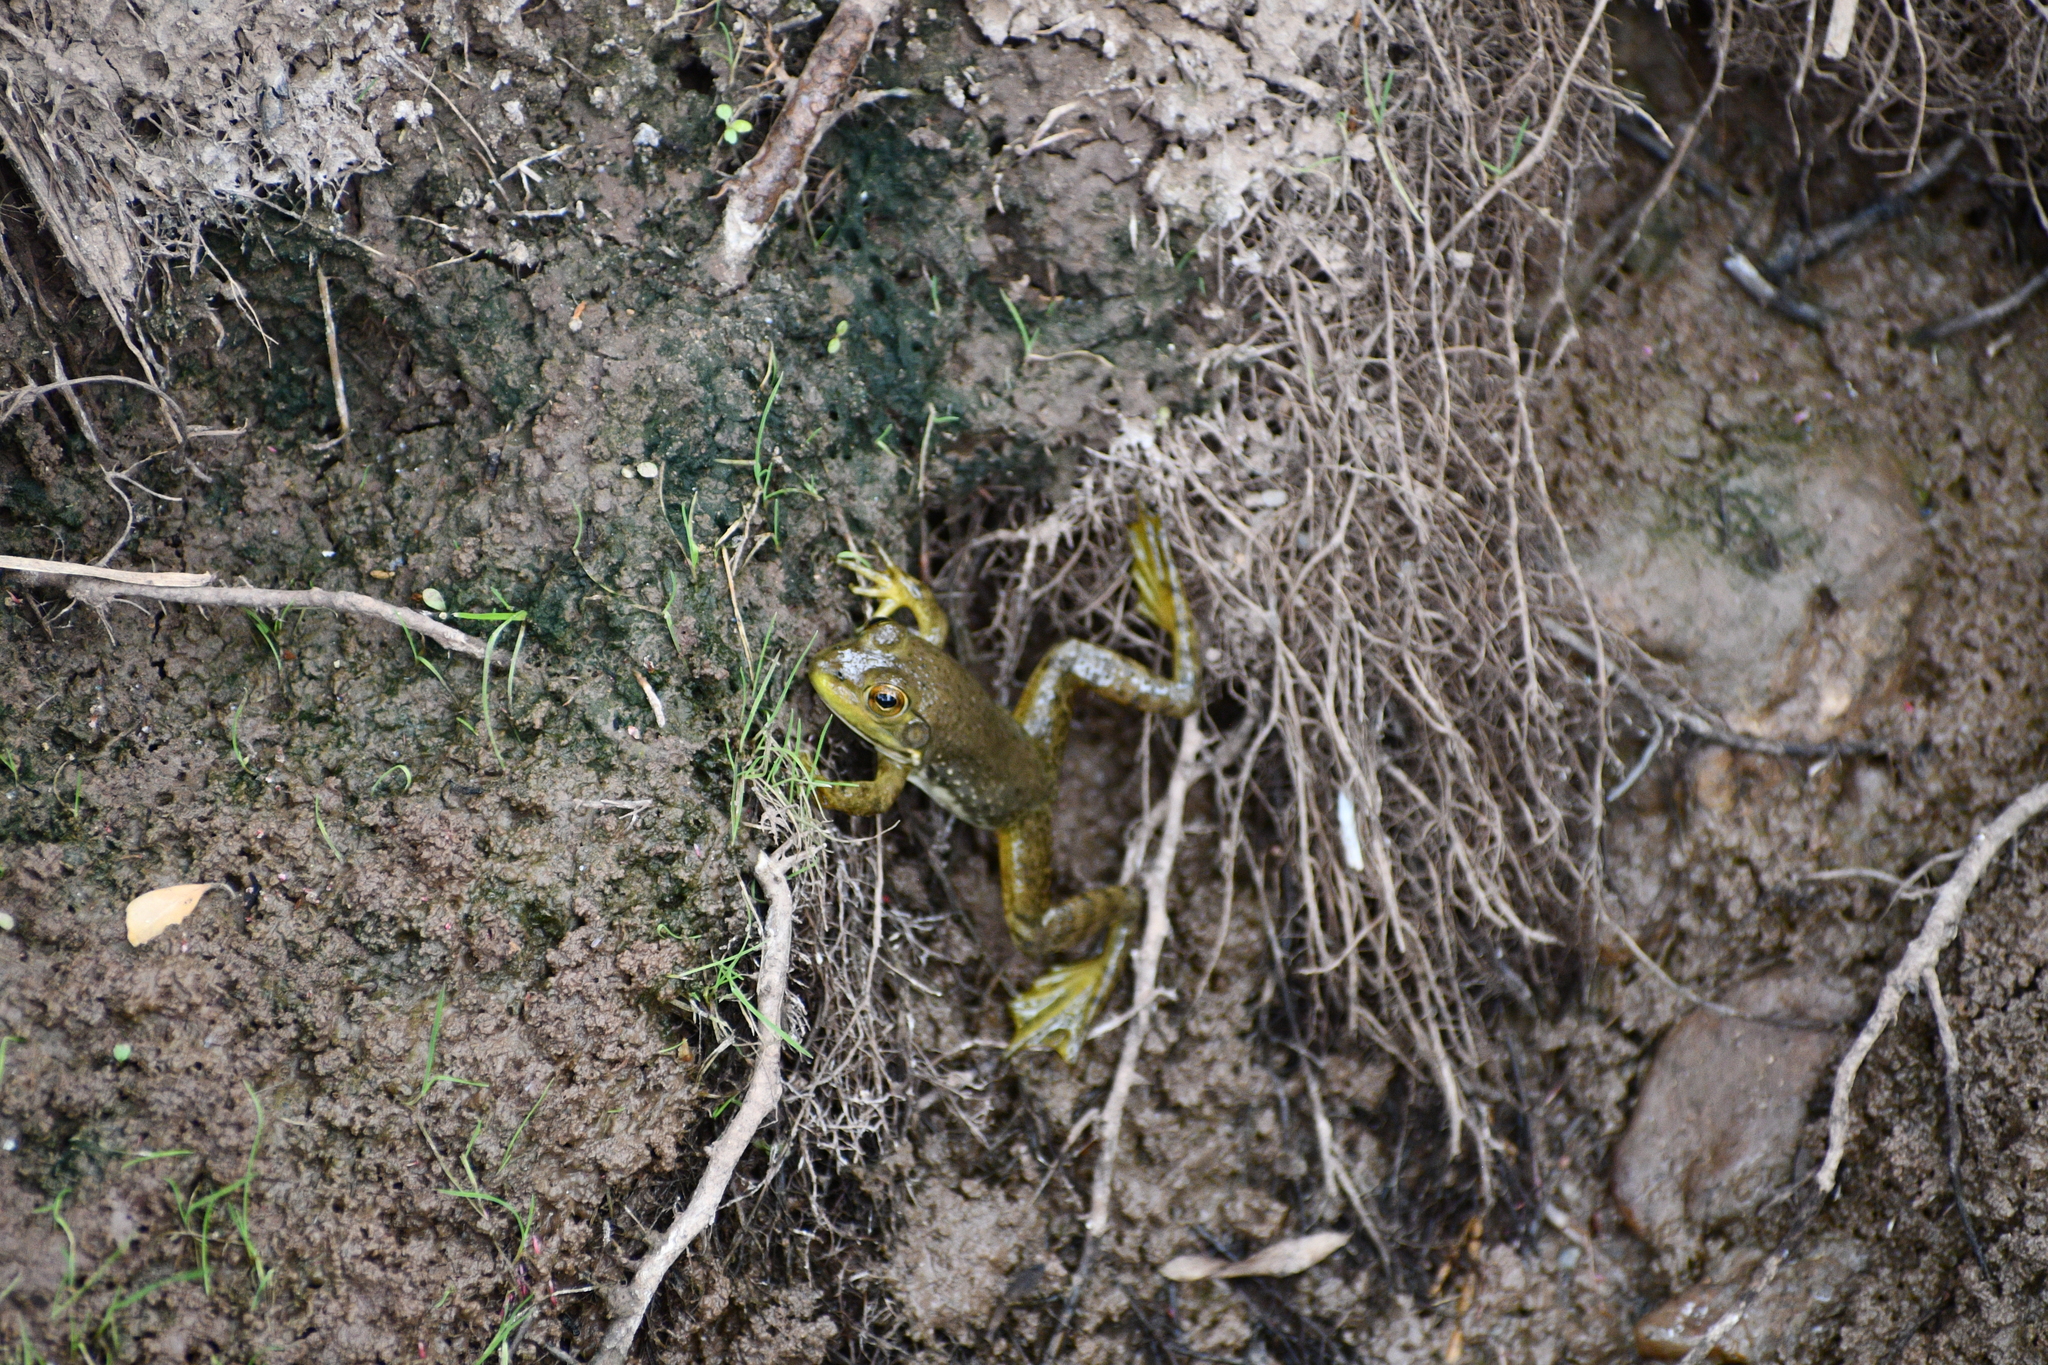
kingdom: Animalia
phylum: Chordata
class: Amphibia
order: Anura
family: Ranidae
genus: Lithobates
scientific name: Lithobates catesbeianus
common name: American bullfrog
